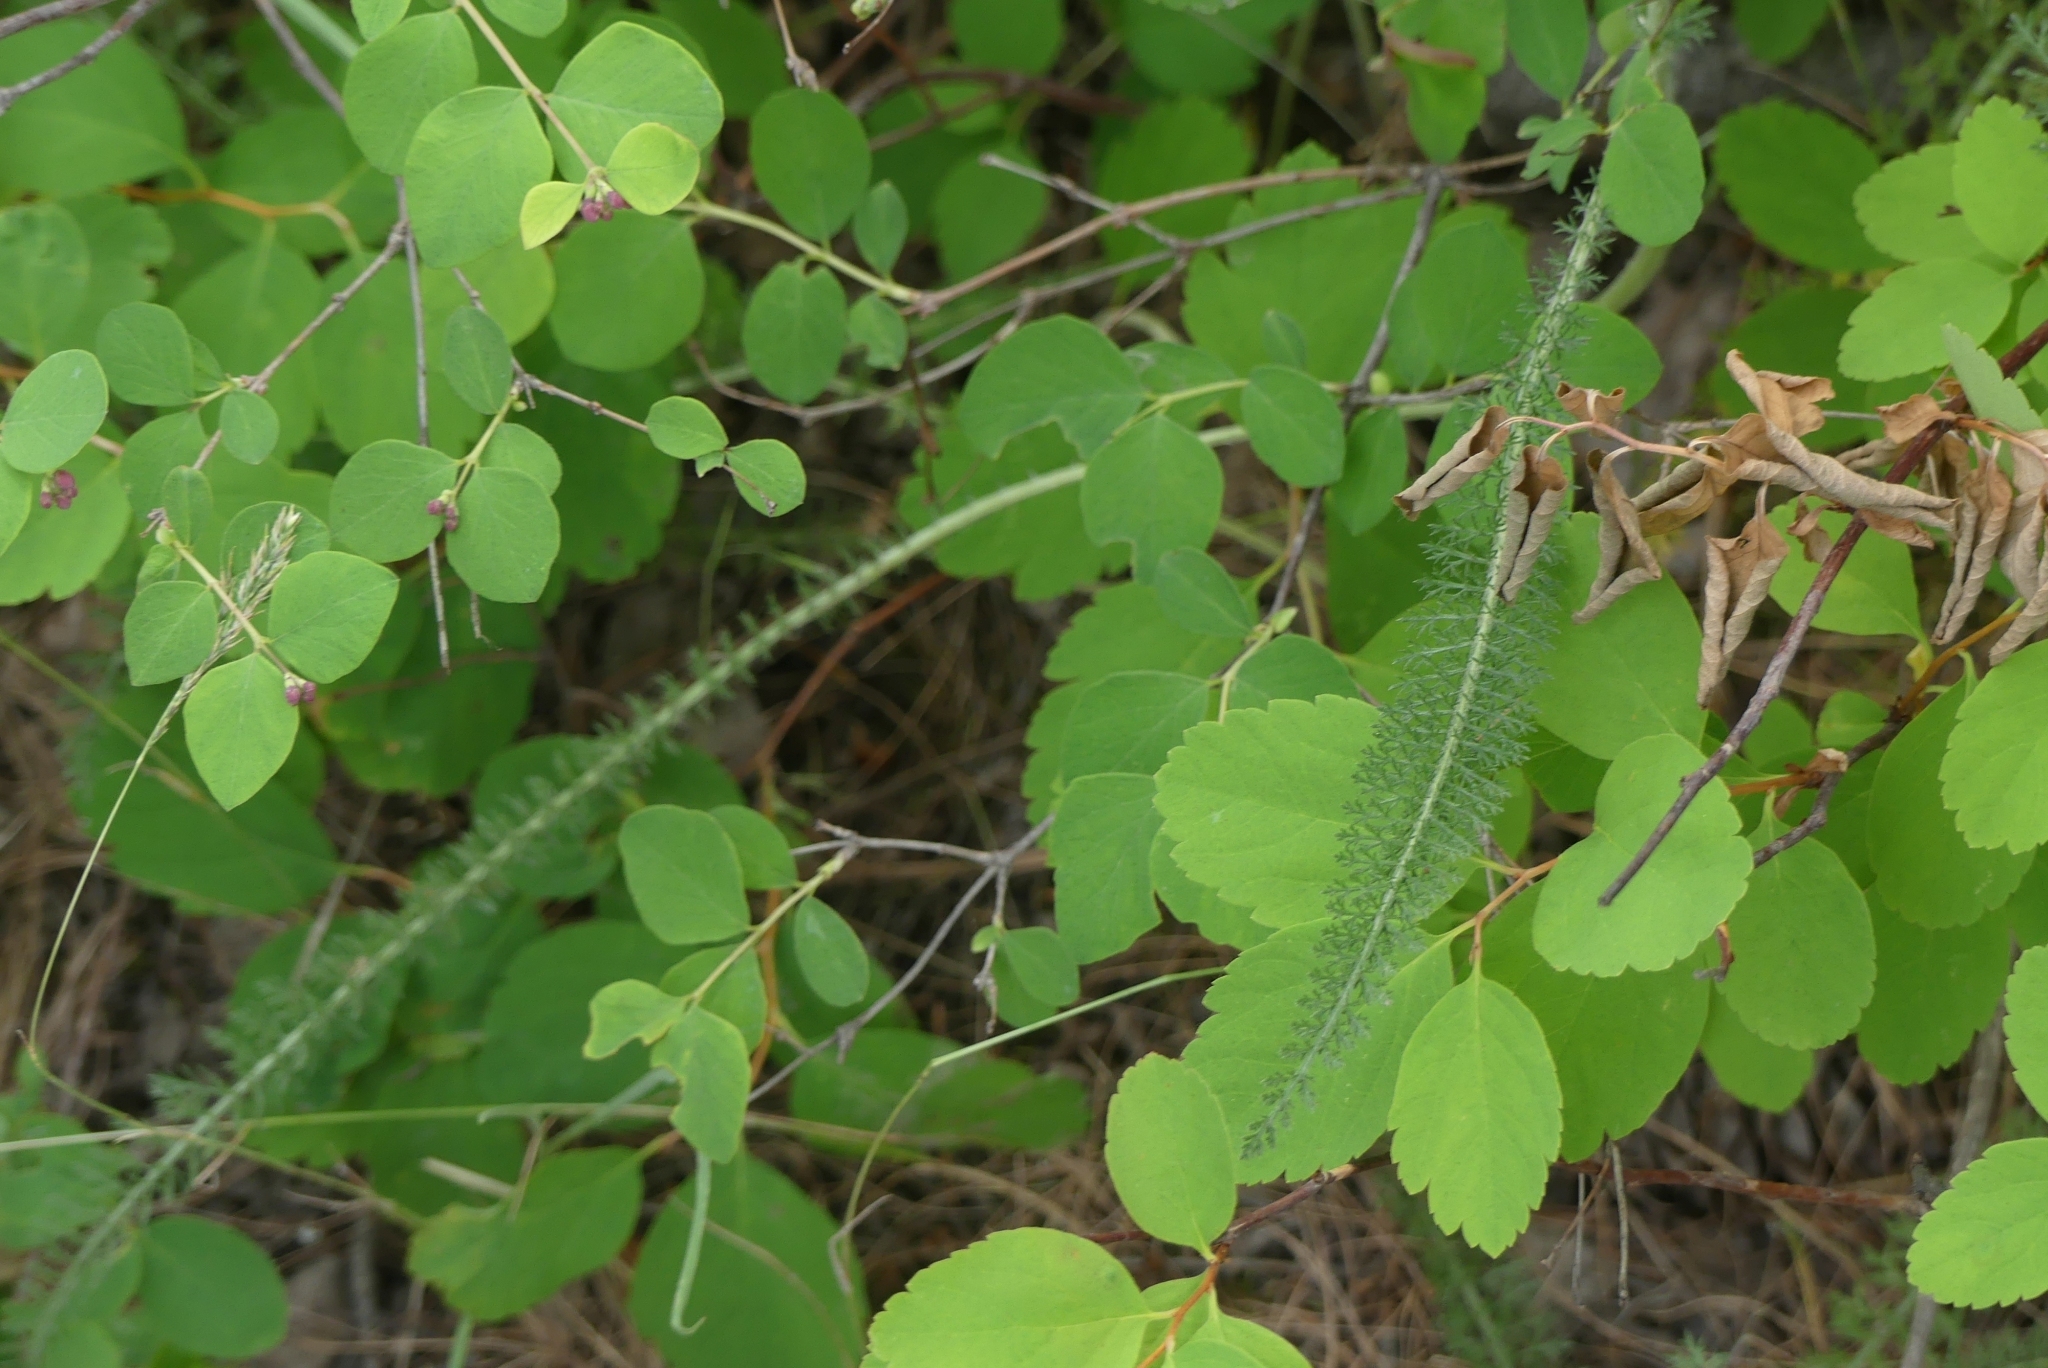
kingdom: Plantae
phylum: Tracheophyta
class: Magnoliopsida
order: Asterales
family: Asteraceae
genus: Achillea
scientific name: Achillea millefolium
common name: Yarrow
